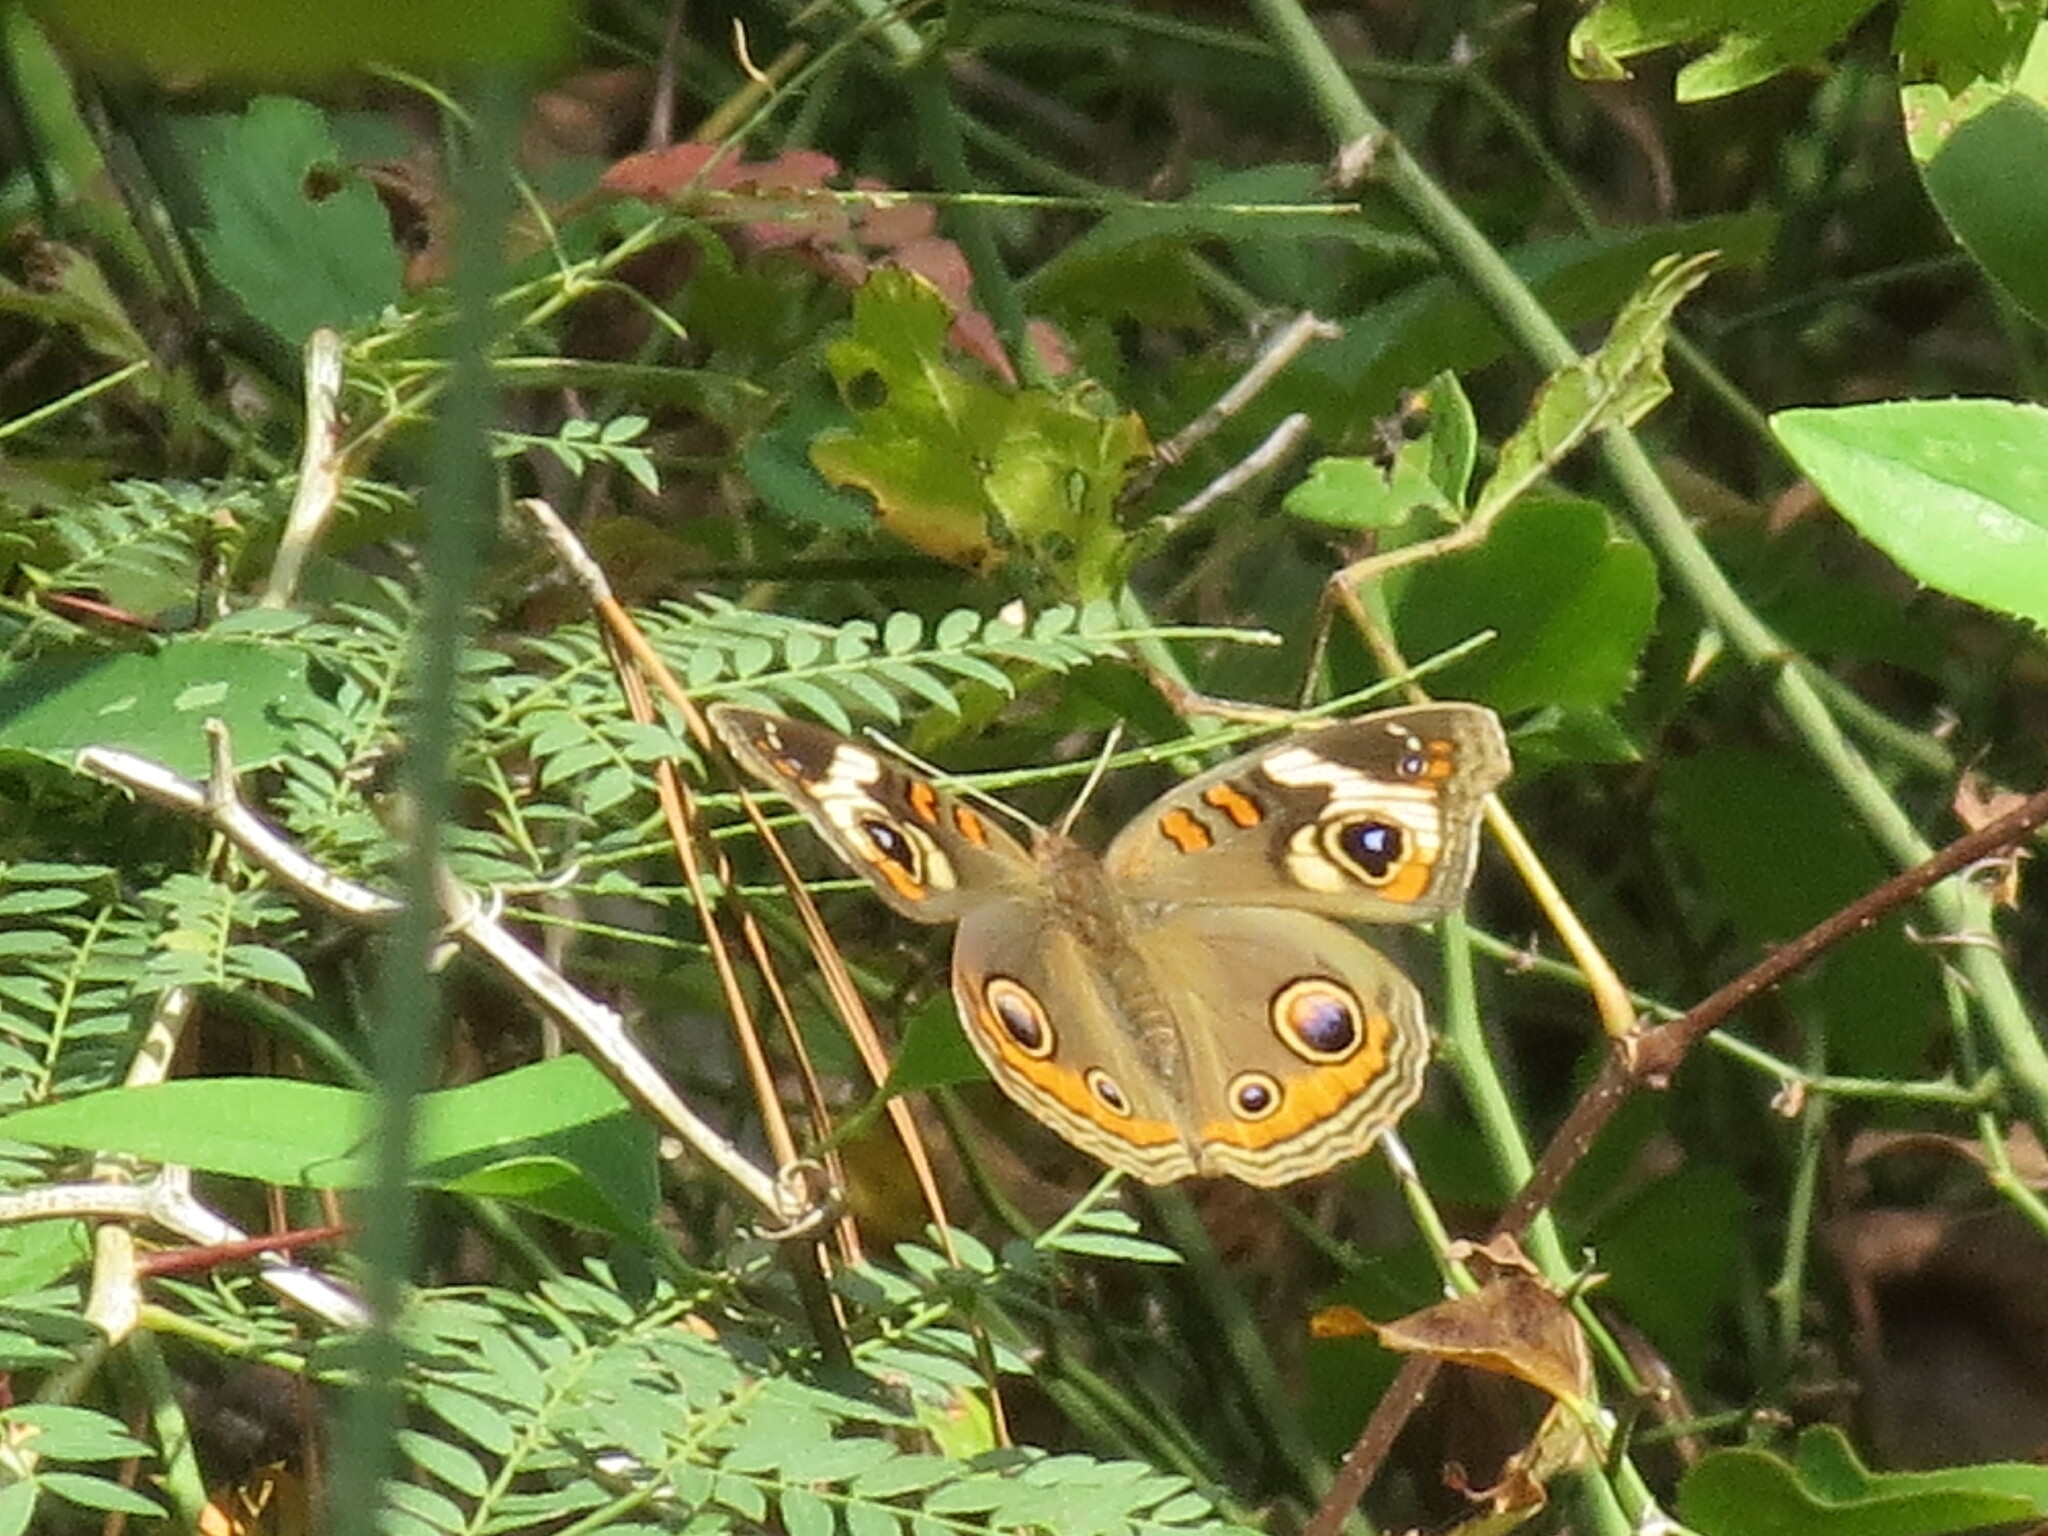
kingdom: Animalia
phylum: Arthropoda
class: Insecta
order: Lepidoptera
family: Nymphalidae
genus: Junonia
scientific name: Junonia coenia
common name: Common buckeye
